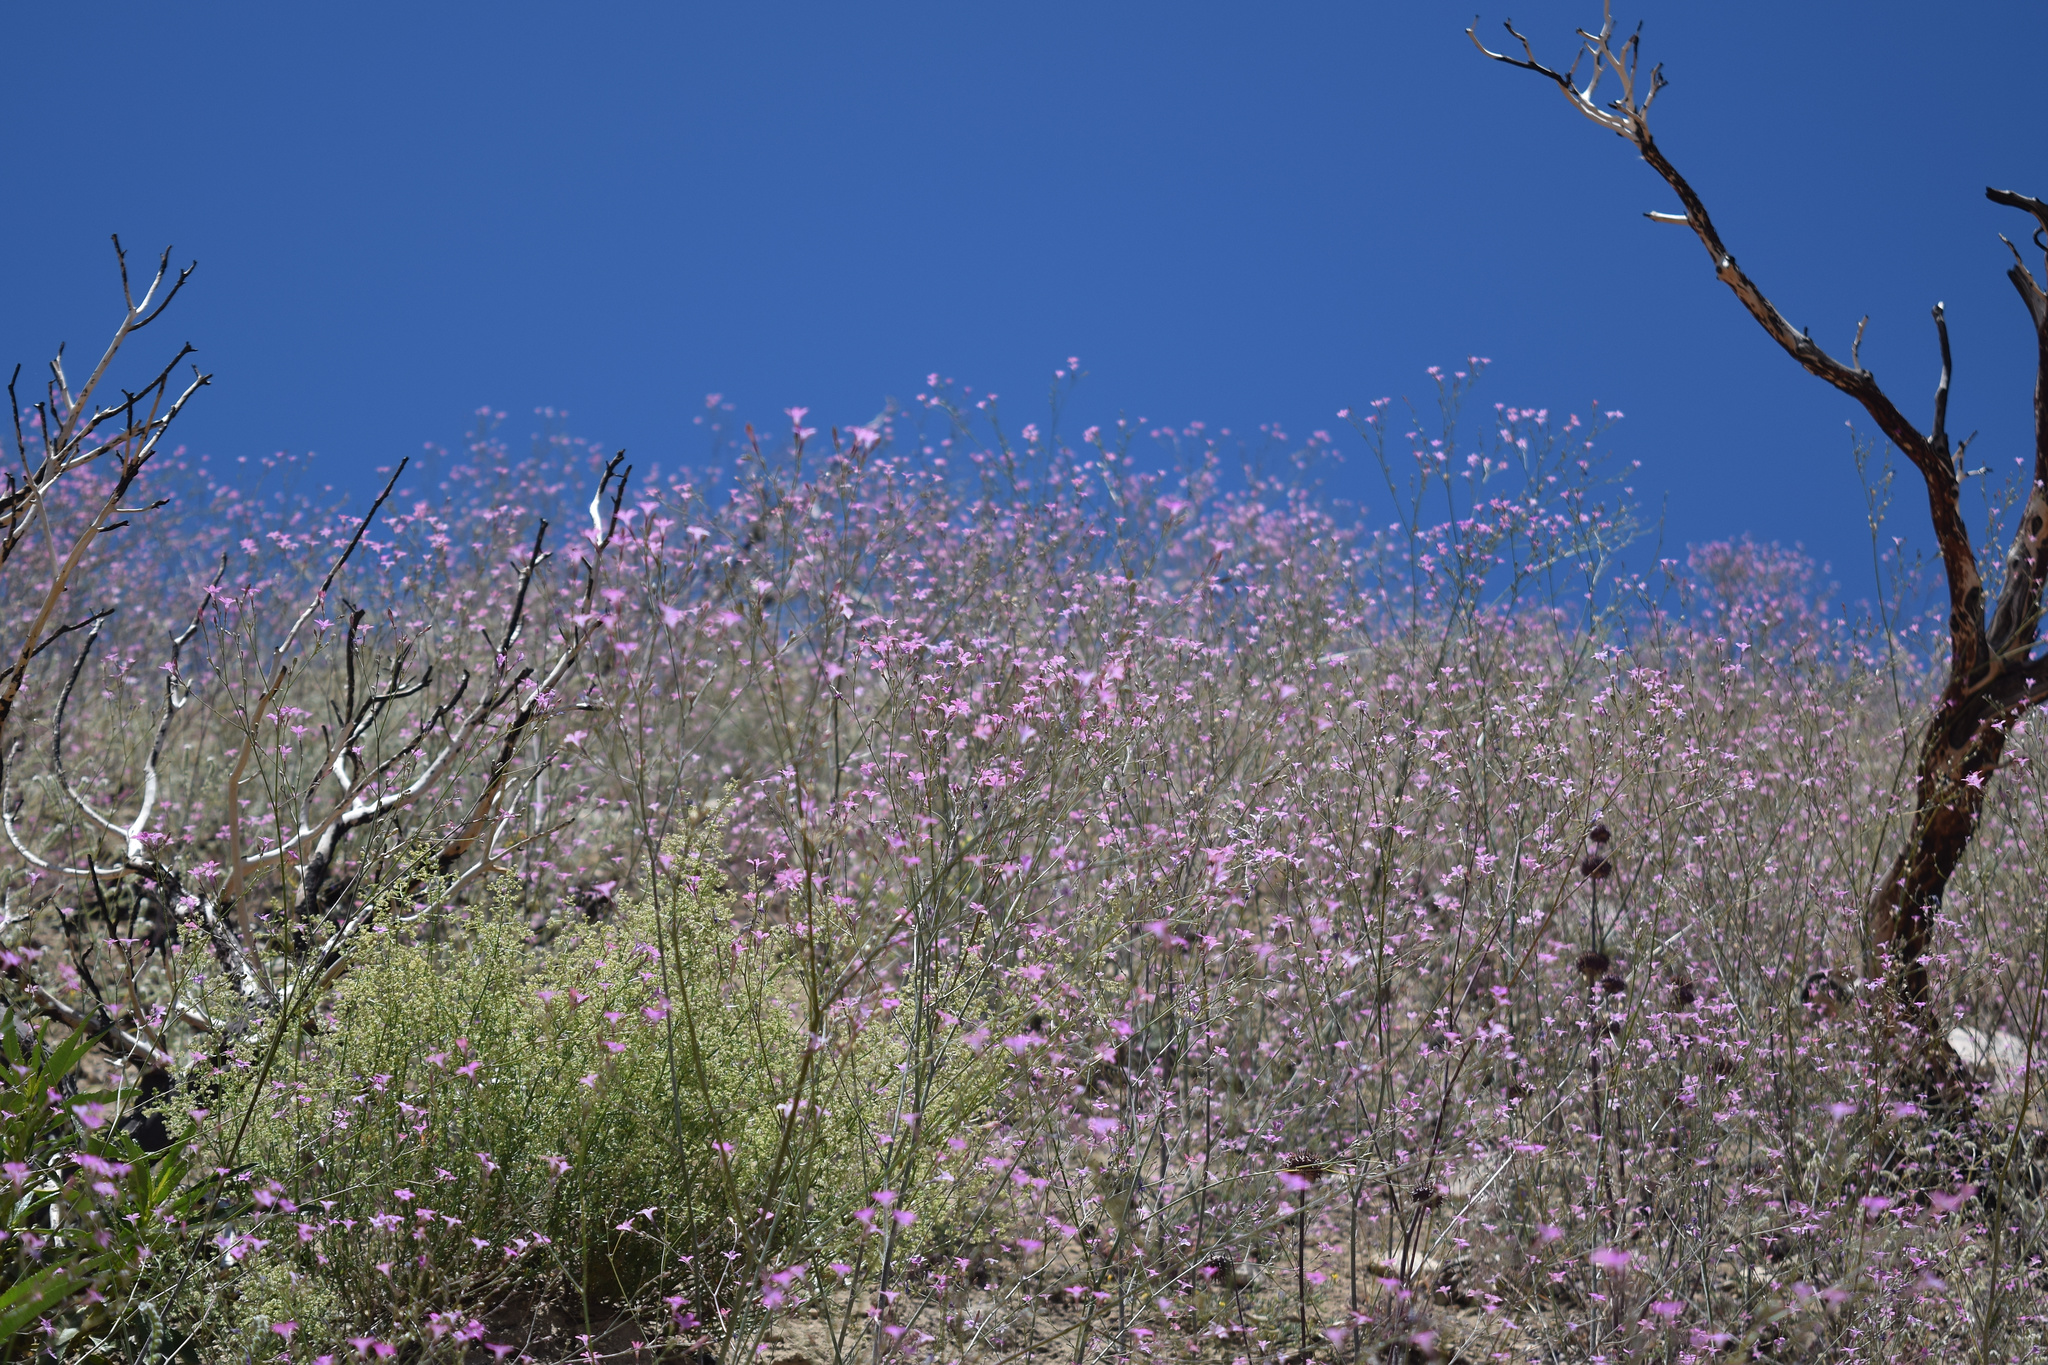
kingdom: Plantae
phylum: Tracheophyta
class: Magnoliopsida
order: Ericales
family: Polemoniaceae
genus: Saltugilia
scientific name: Saltugilia splendens
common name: Grinnell's gilia
